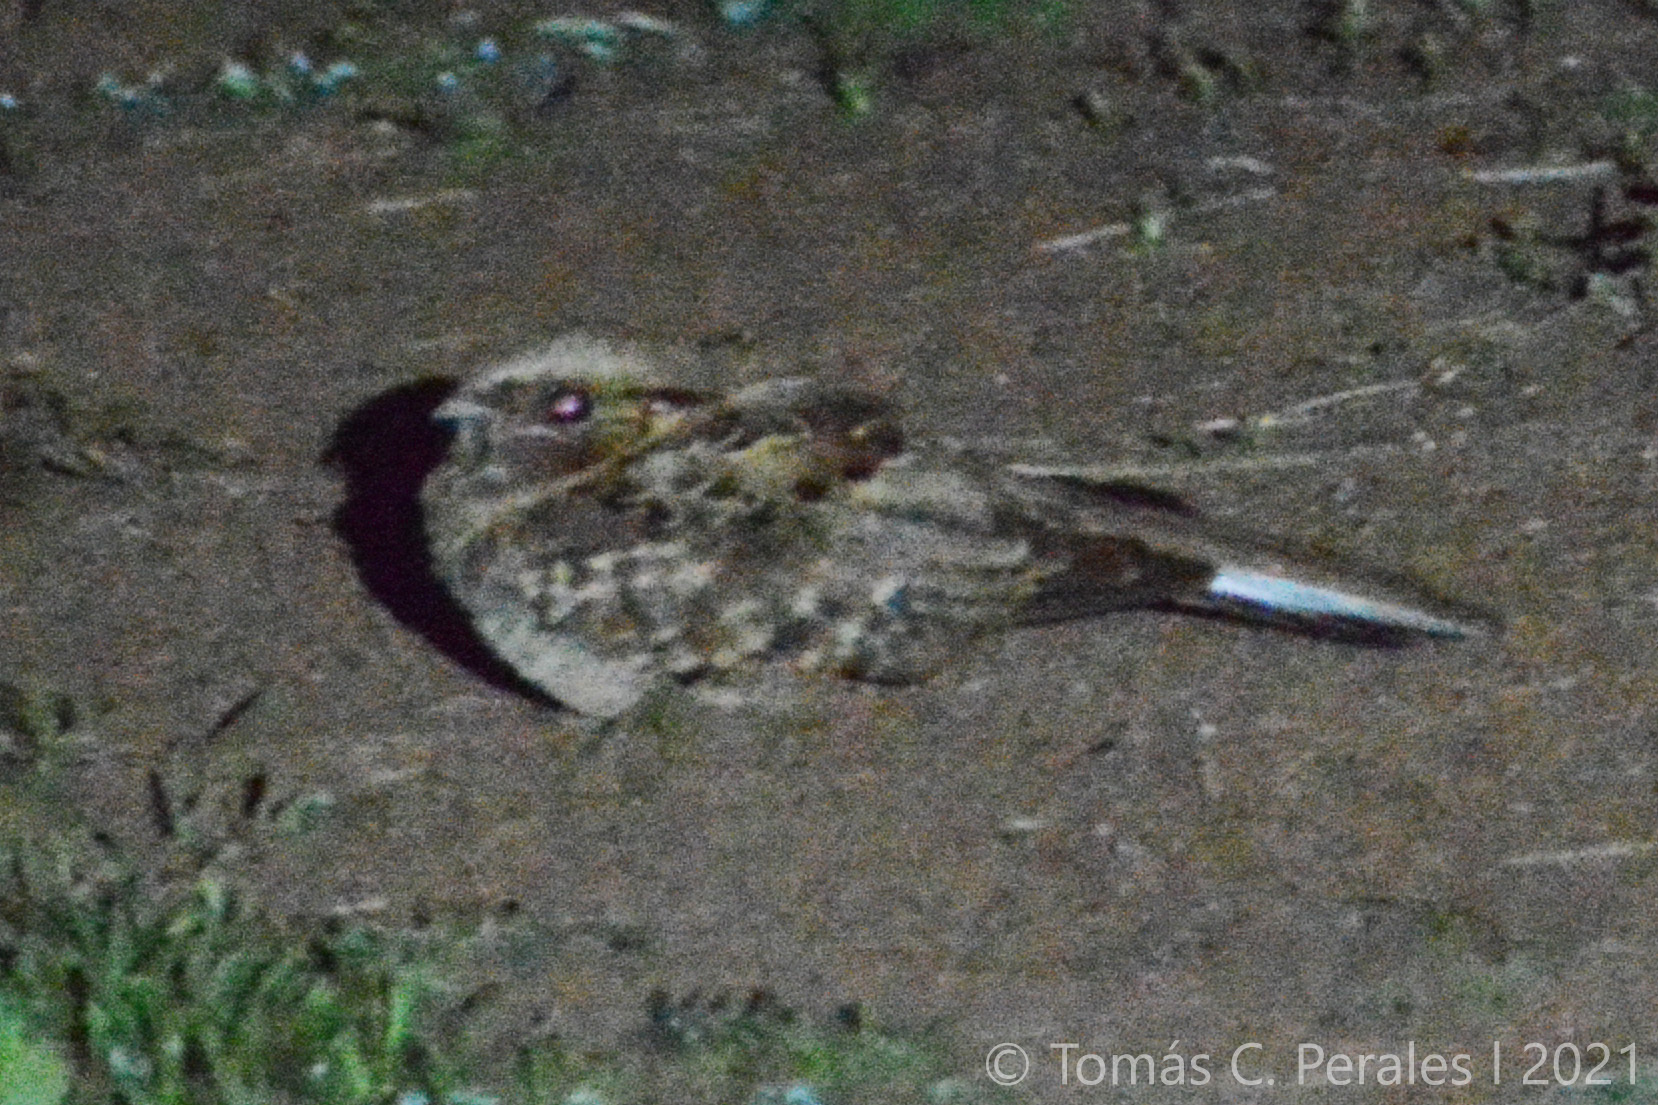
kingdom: Animalia
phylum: Chordata
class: Aves
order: Caprimulgiformes
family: Caprimulgidae
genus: Nyctidromus
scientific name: Nyctidromus albicollis
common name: Pauraque
